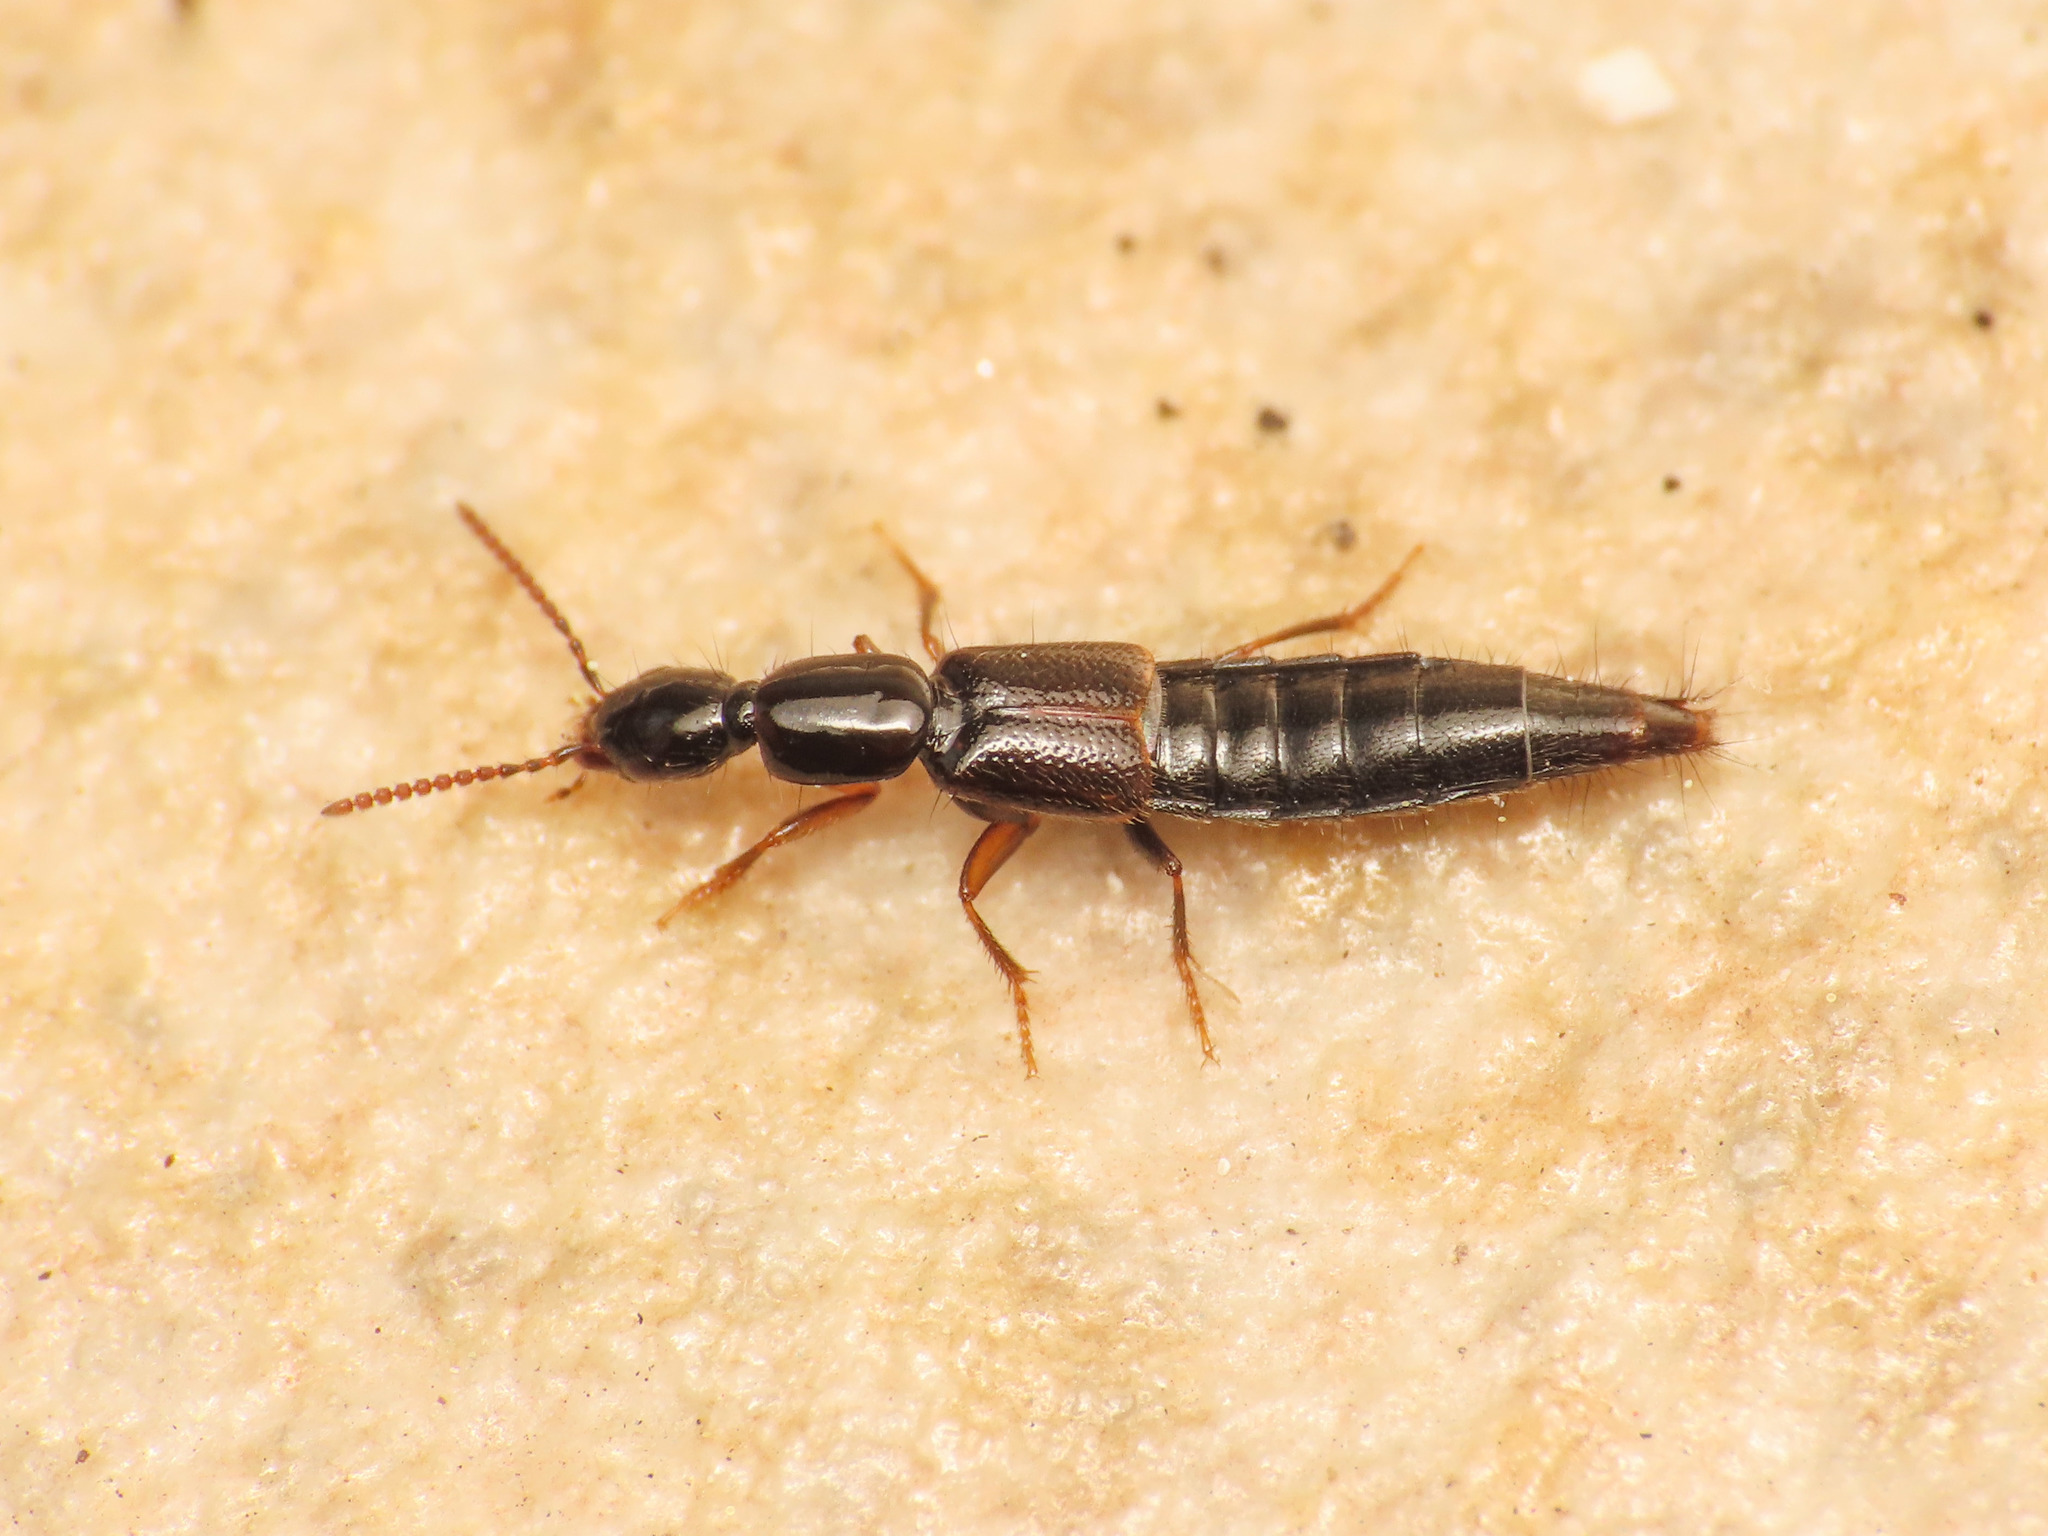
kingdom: Animalia
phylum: Arthropoda
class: Insecta
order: Coleoptera
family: Staphylinidae
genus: Othius
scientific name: Othius laeviusculus
